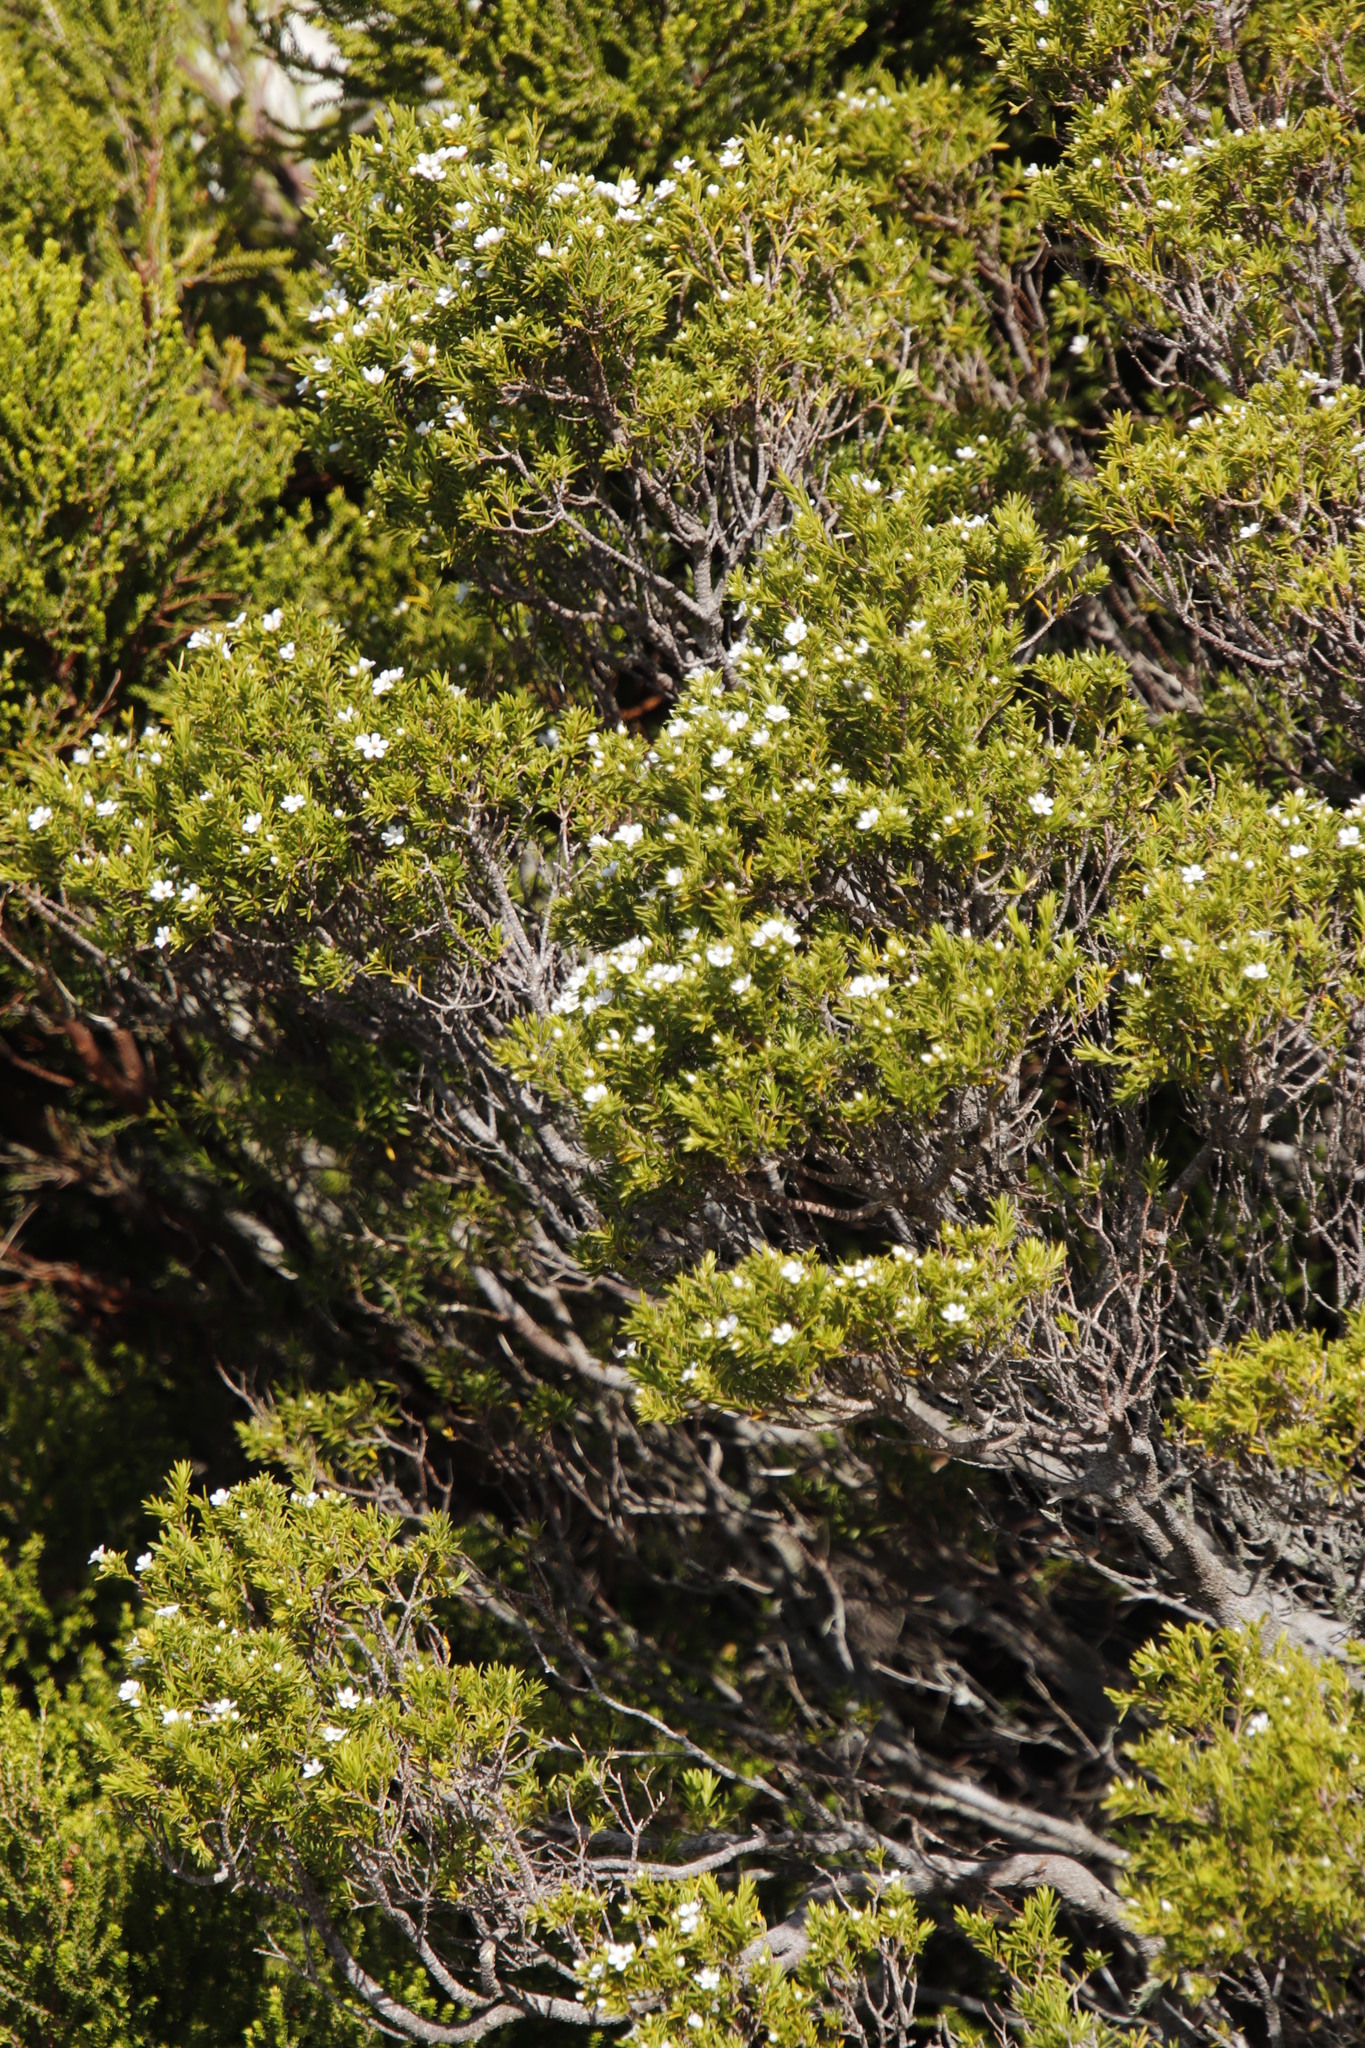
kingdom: Plantae
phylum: Tracheophyta
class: Magnoliopsida
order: Sapindales
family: Rutaceae
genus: Coleonema
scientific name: Coleonema album
